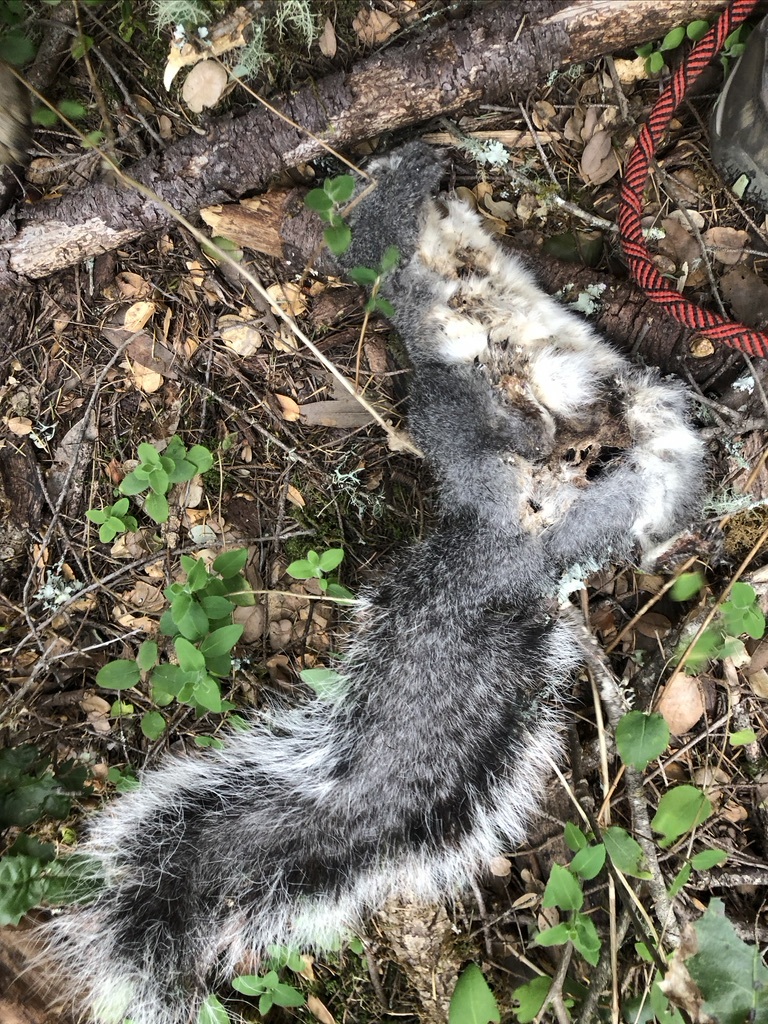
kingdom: Animalia
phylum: Chordata
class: Mammalia
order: Rodentia
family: Sciuridae
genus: Sciurus
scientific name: Sciurus griseus
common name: Western gray squirrel
